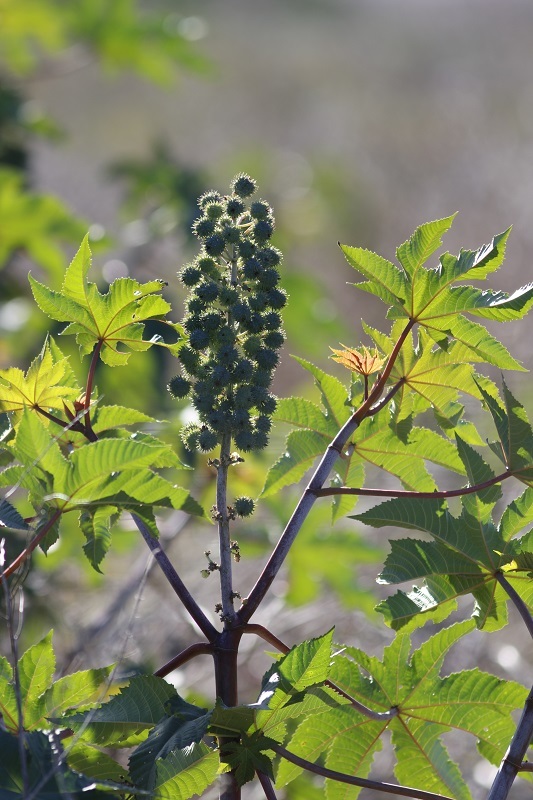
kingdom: Plantae
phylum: Tracheophyta
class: Magnoliopsida
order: Malpighiales
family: Euphorbiaceae
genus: Ricinus
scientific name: Ricinus communis
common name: Castor-oil-plant
